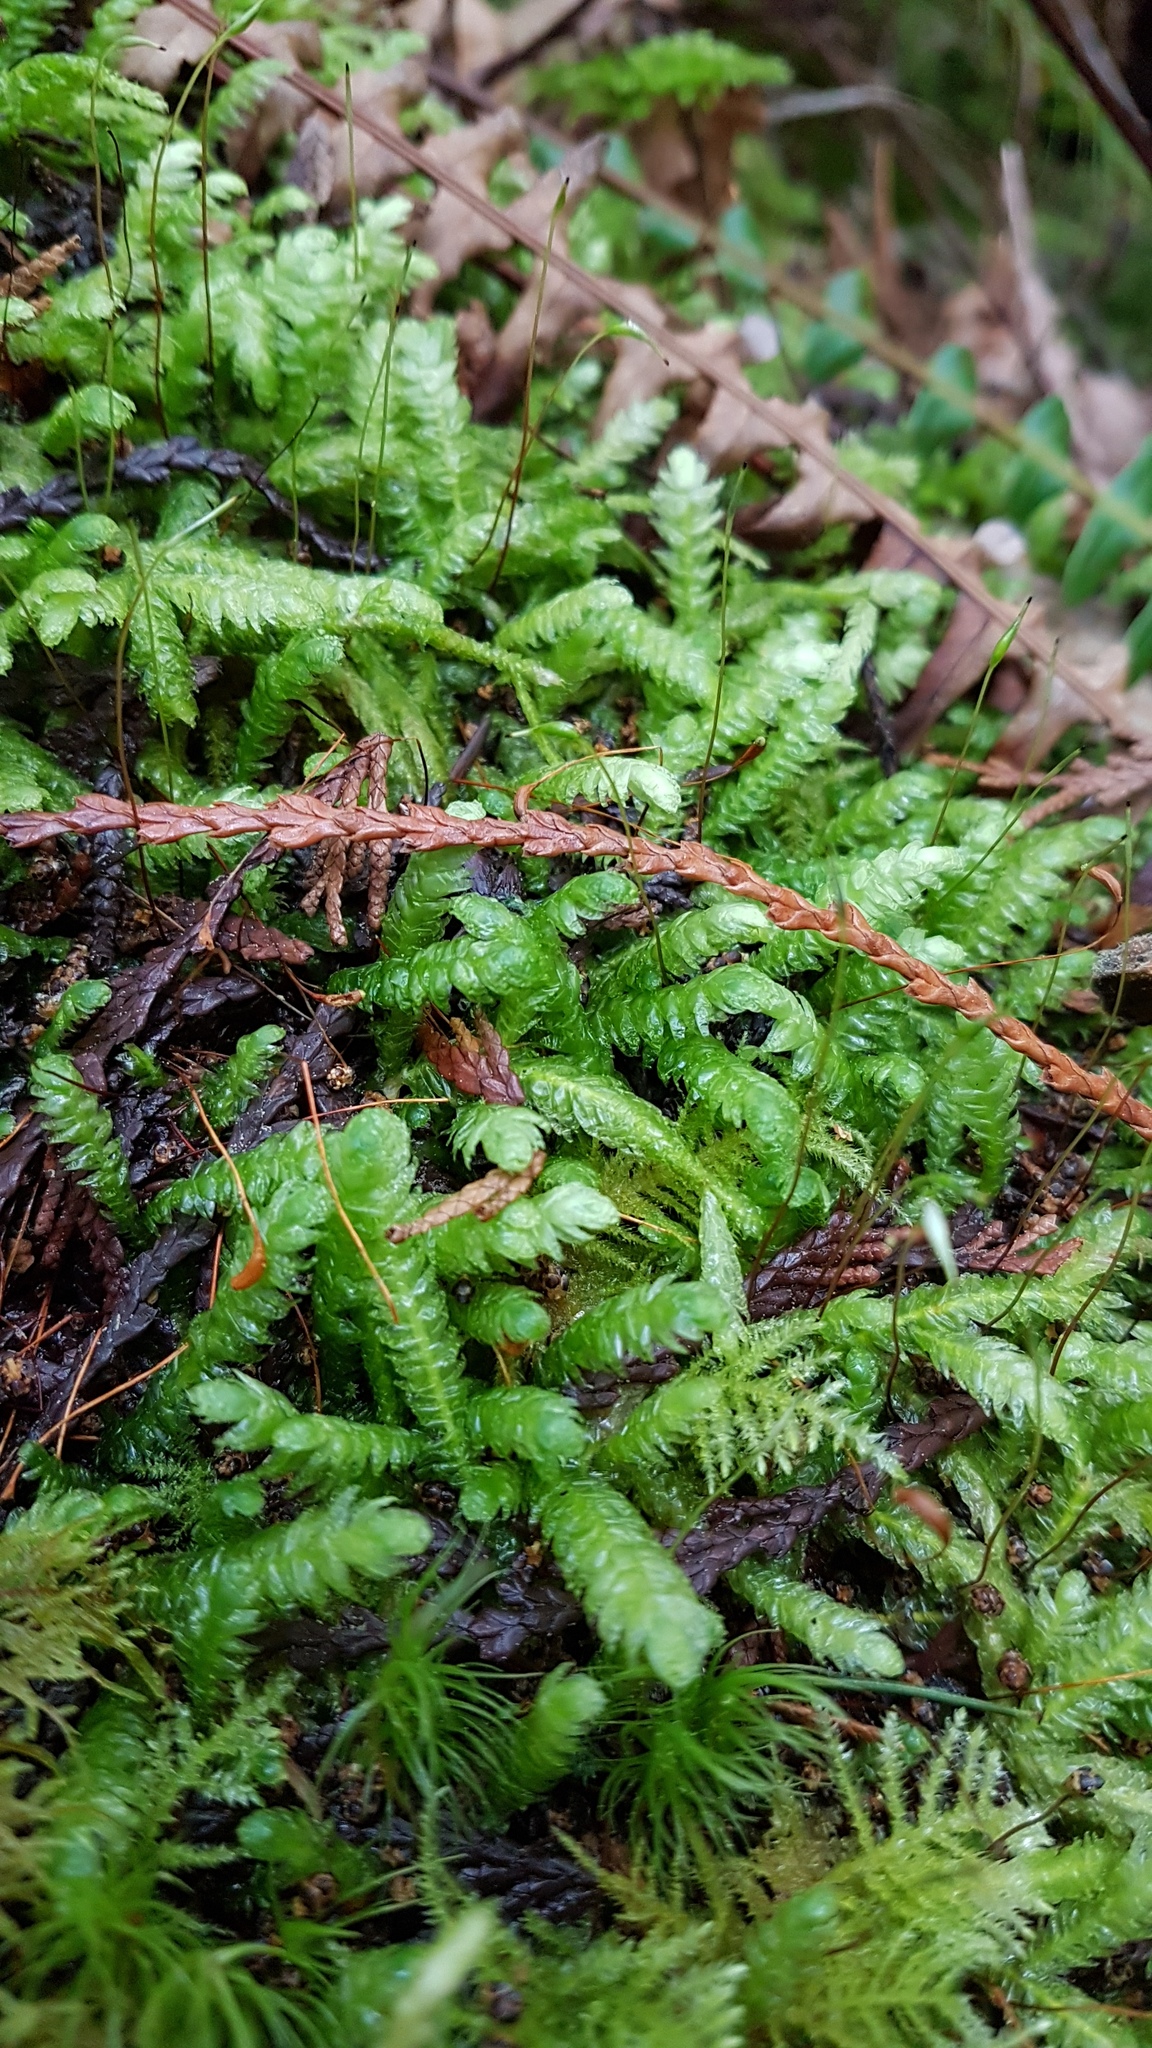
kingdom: Plantae
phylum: Bryophyta
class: Bryopsida
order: Hypnales
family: Plagiotheciaceae
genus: Plagiothecium
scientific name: Plagiothecium undulatum
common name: Waved silk-moss
